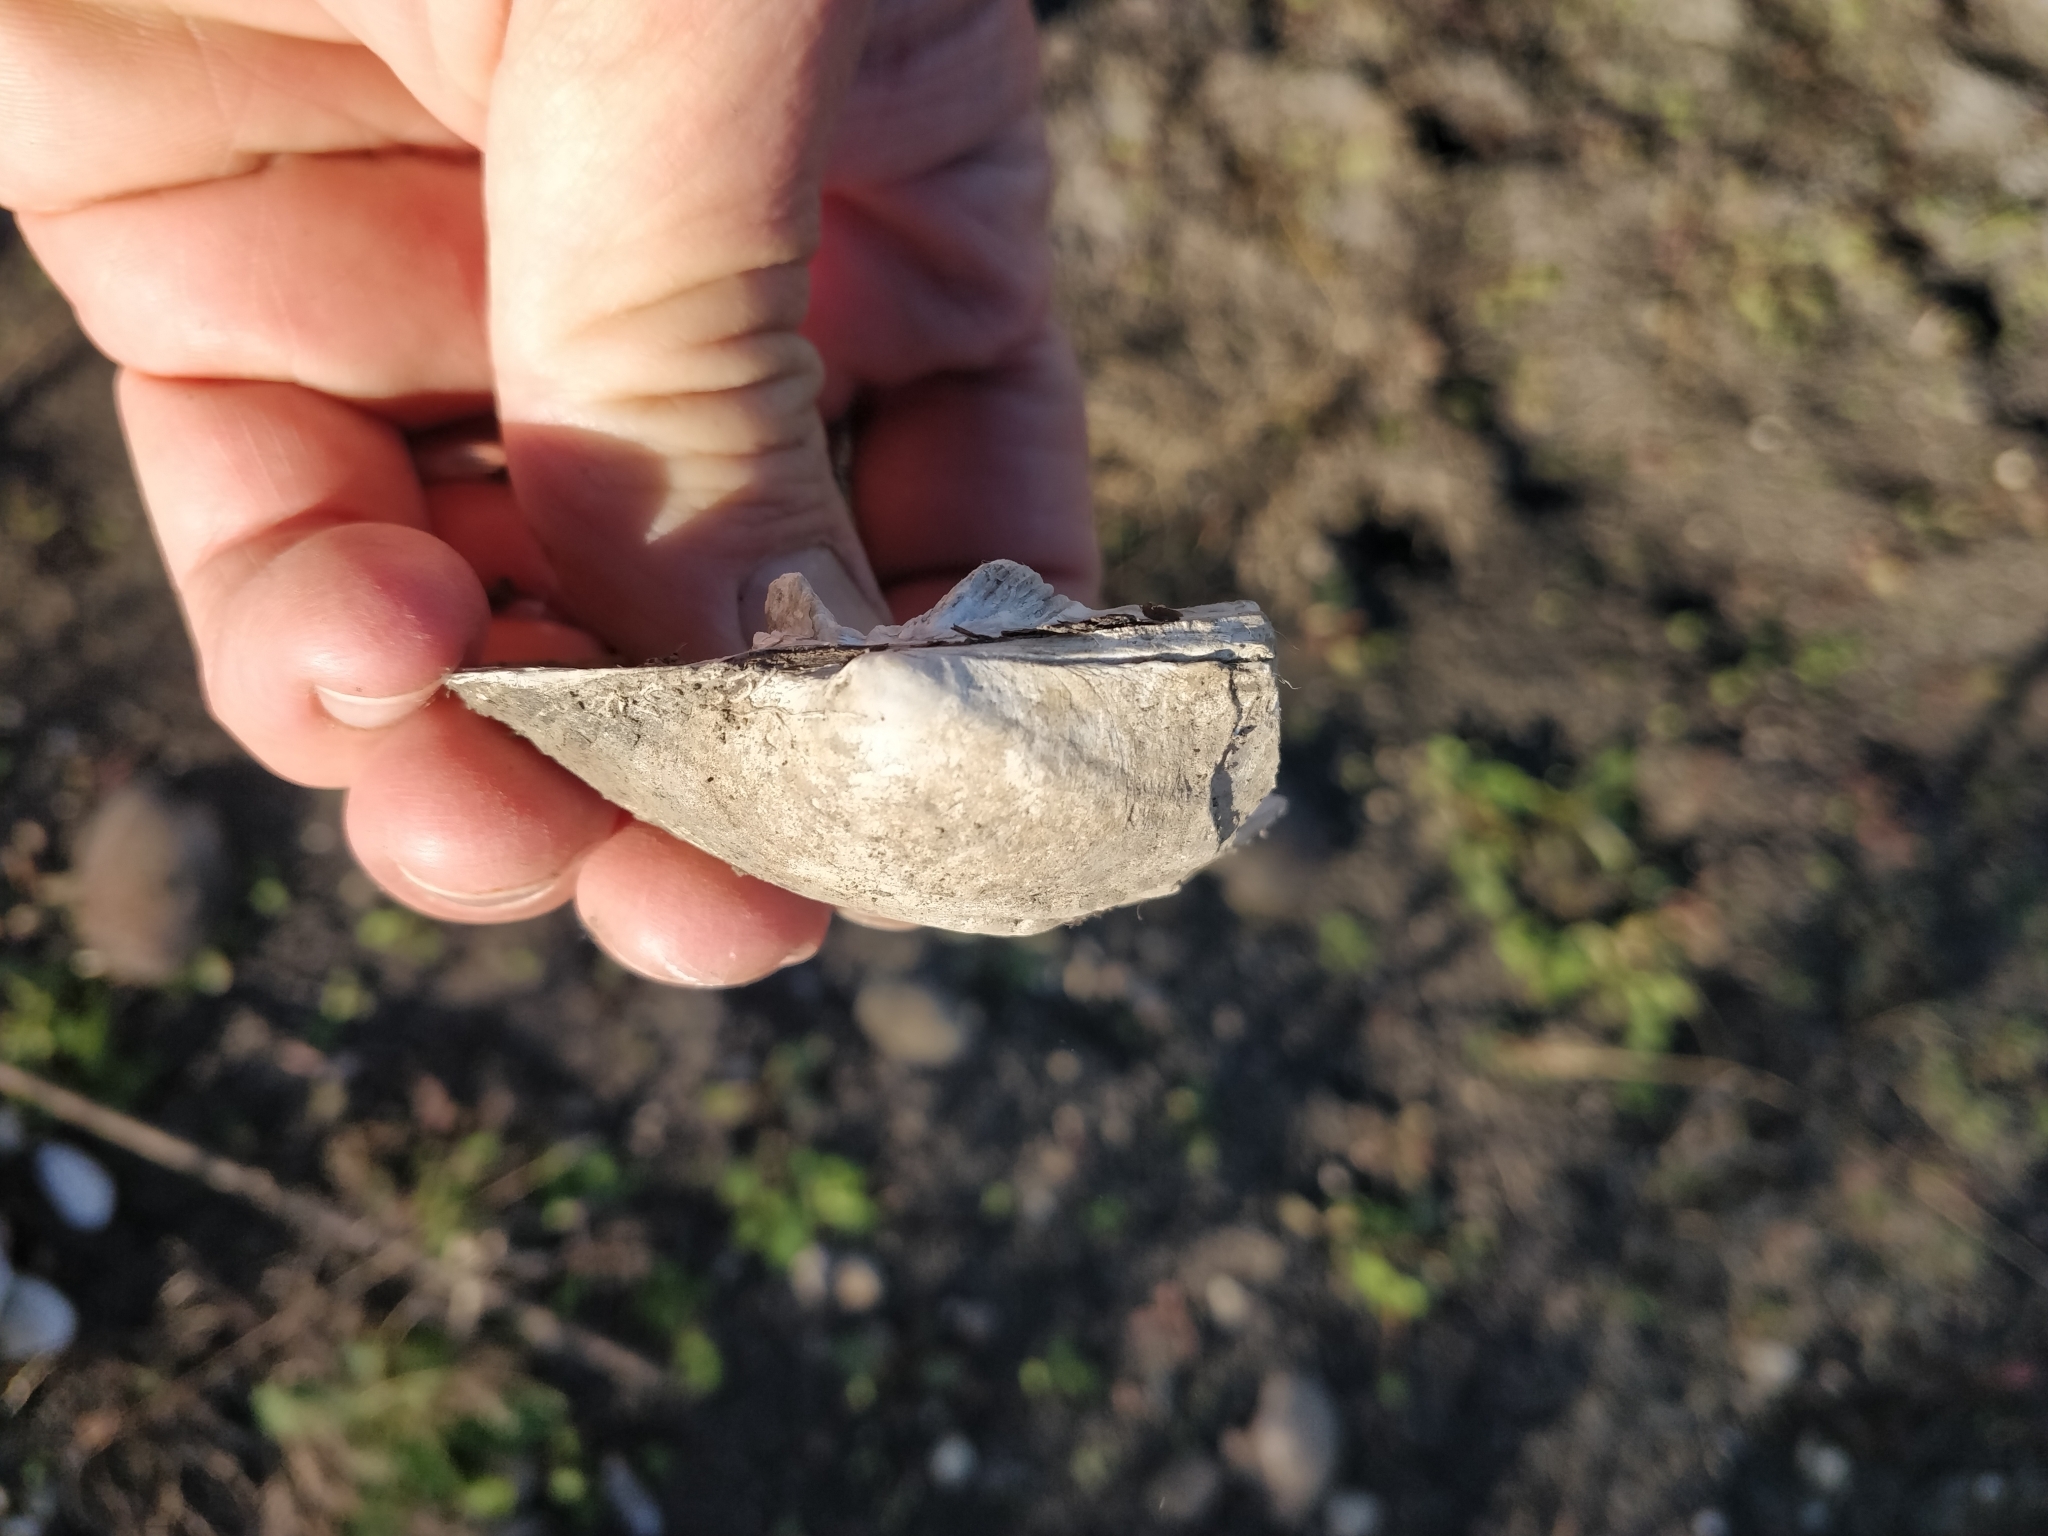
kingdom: Animalia
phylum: Mollusca
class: Bivalvia
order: Unionida
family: Unionidae
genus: Amblema
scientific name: Amblema plicata
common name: Threeridge
